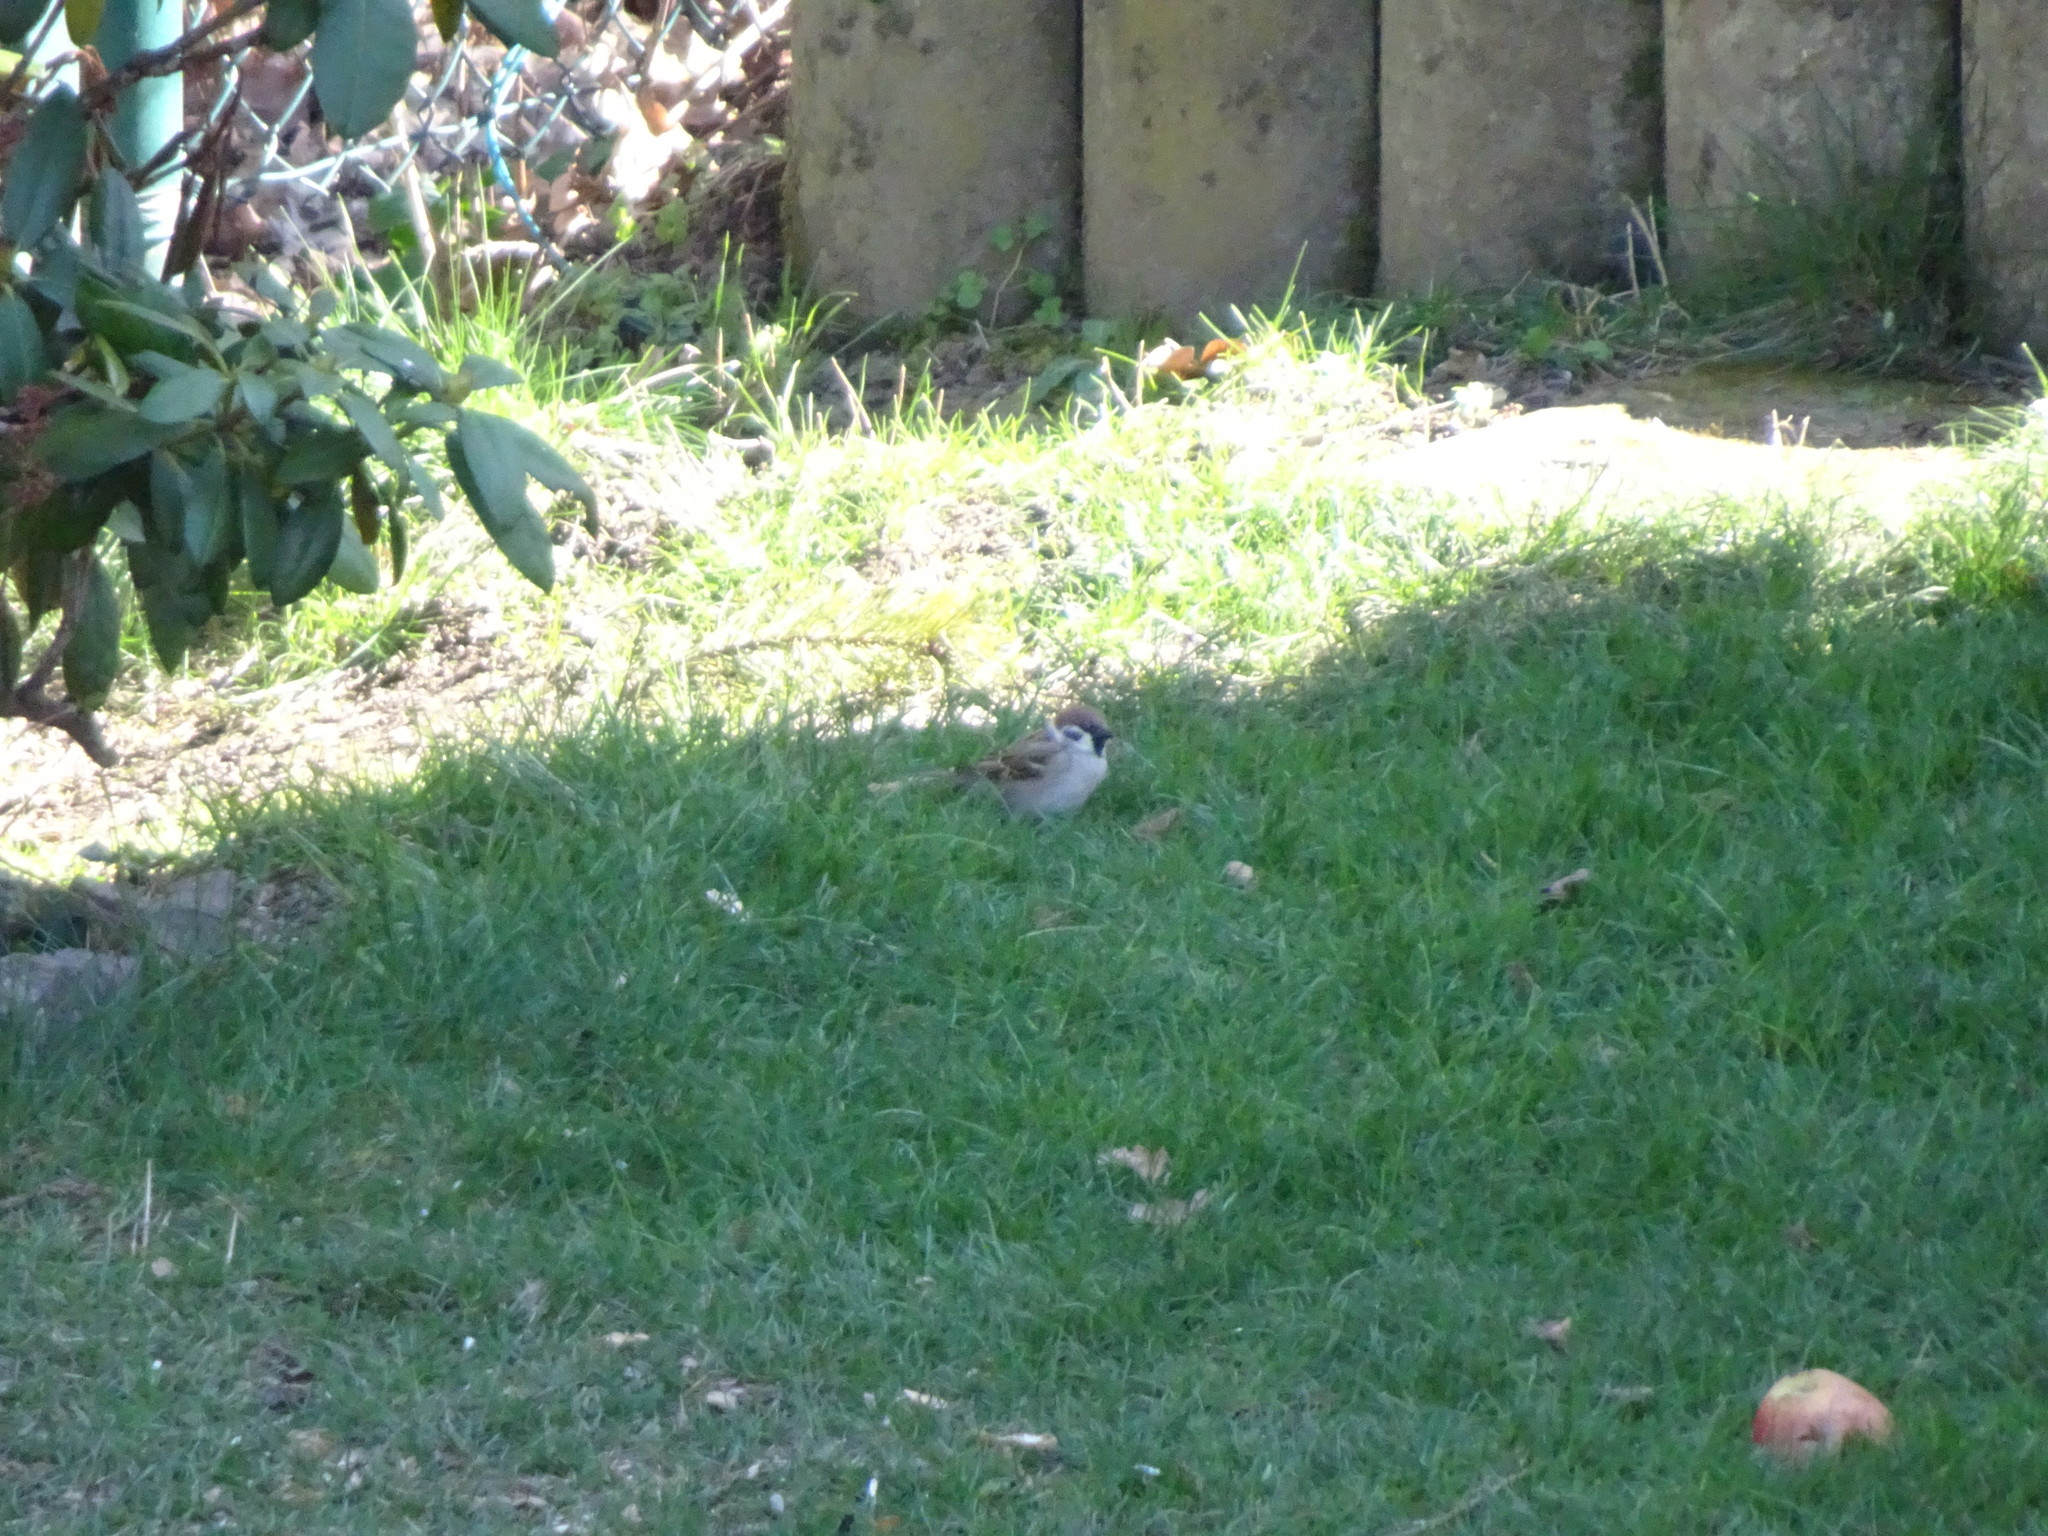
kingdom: Animalia
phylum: Chordata
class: Aves
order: Passeriformes
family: Passeridae
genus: Passer
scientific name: Passer montanus
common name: Eurasian tree sparrow
